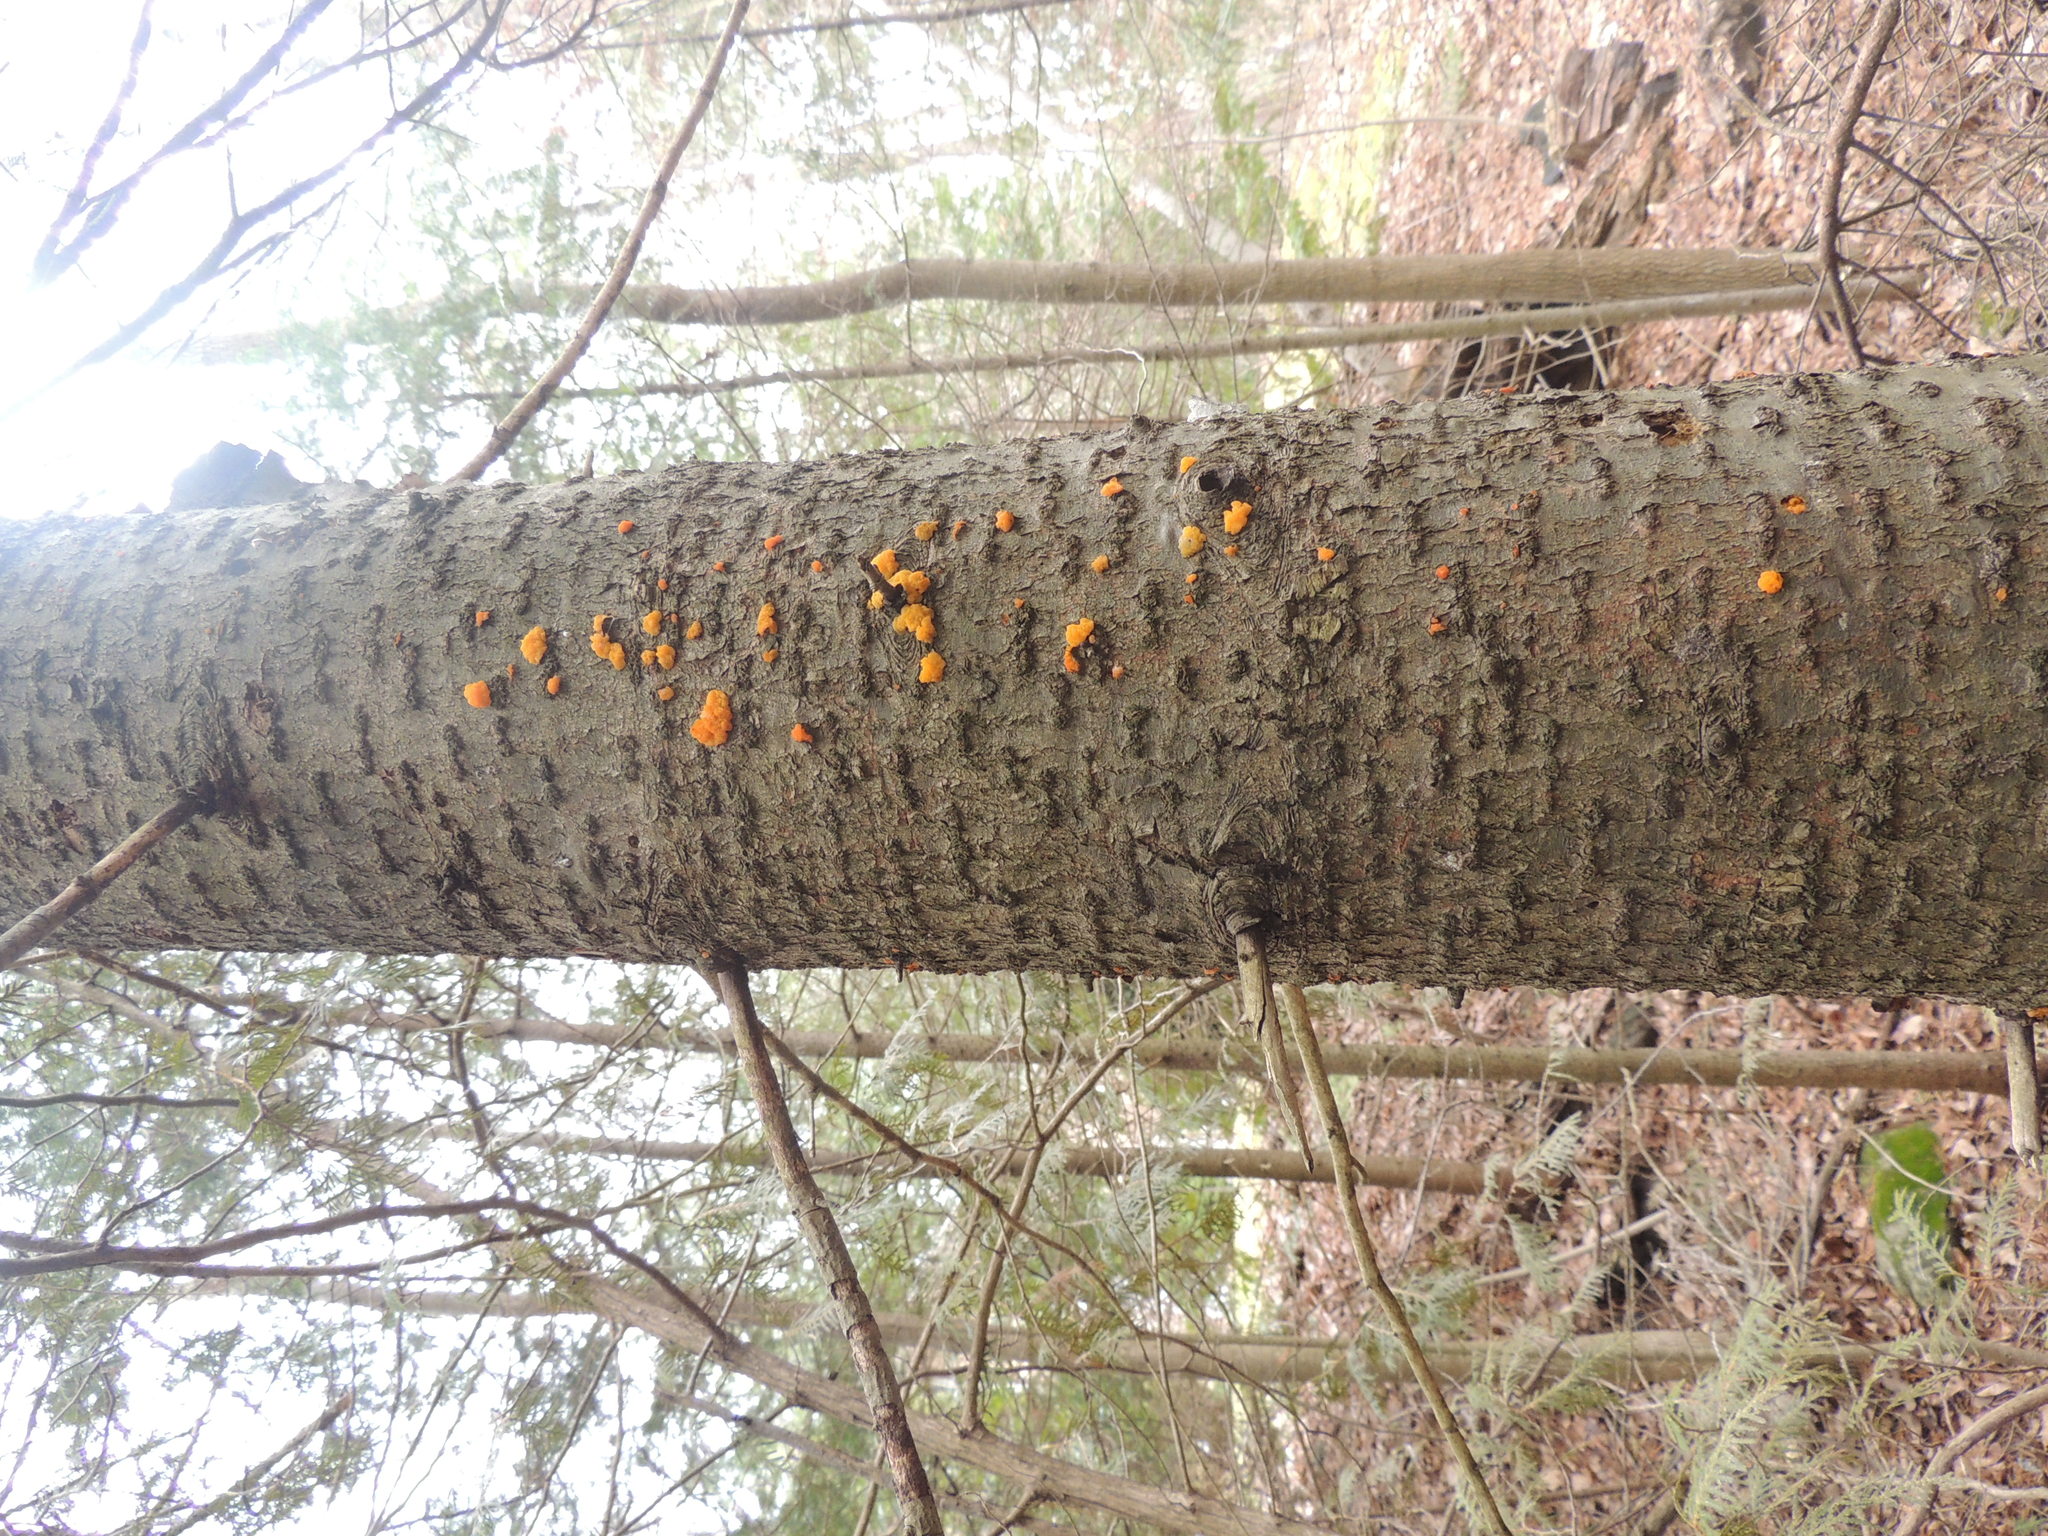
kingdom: Fungi
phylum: Basidiomycota
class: Dacrymycetes
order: Dacrymycetales
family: Dacrymycetaceae
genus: Dacrymyces
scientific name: Dacrymyces chrysospermus
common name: Orange jelly spot
